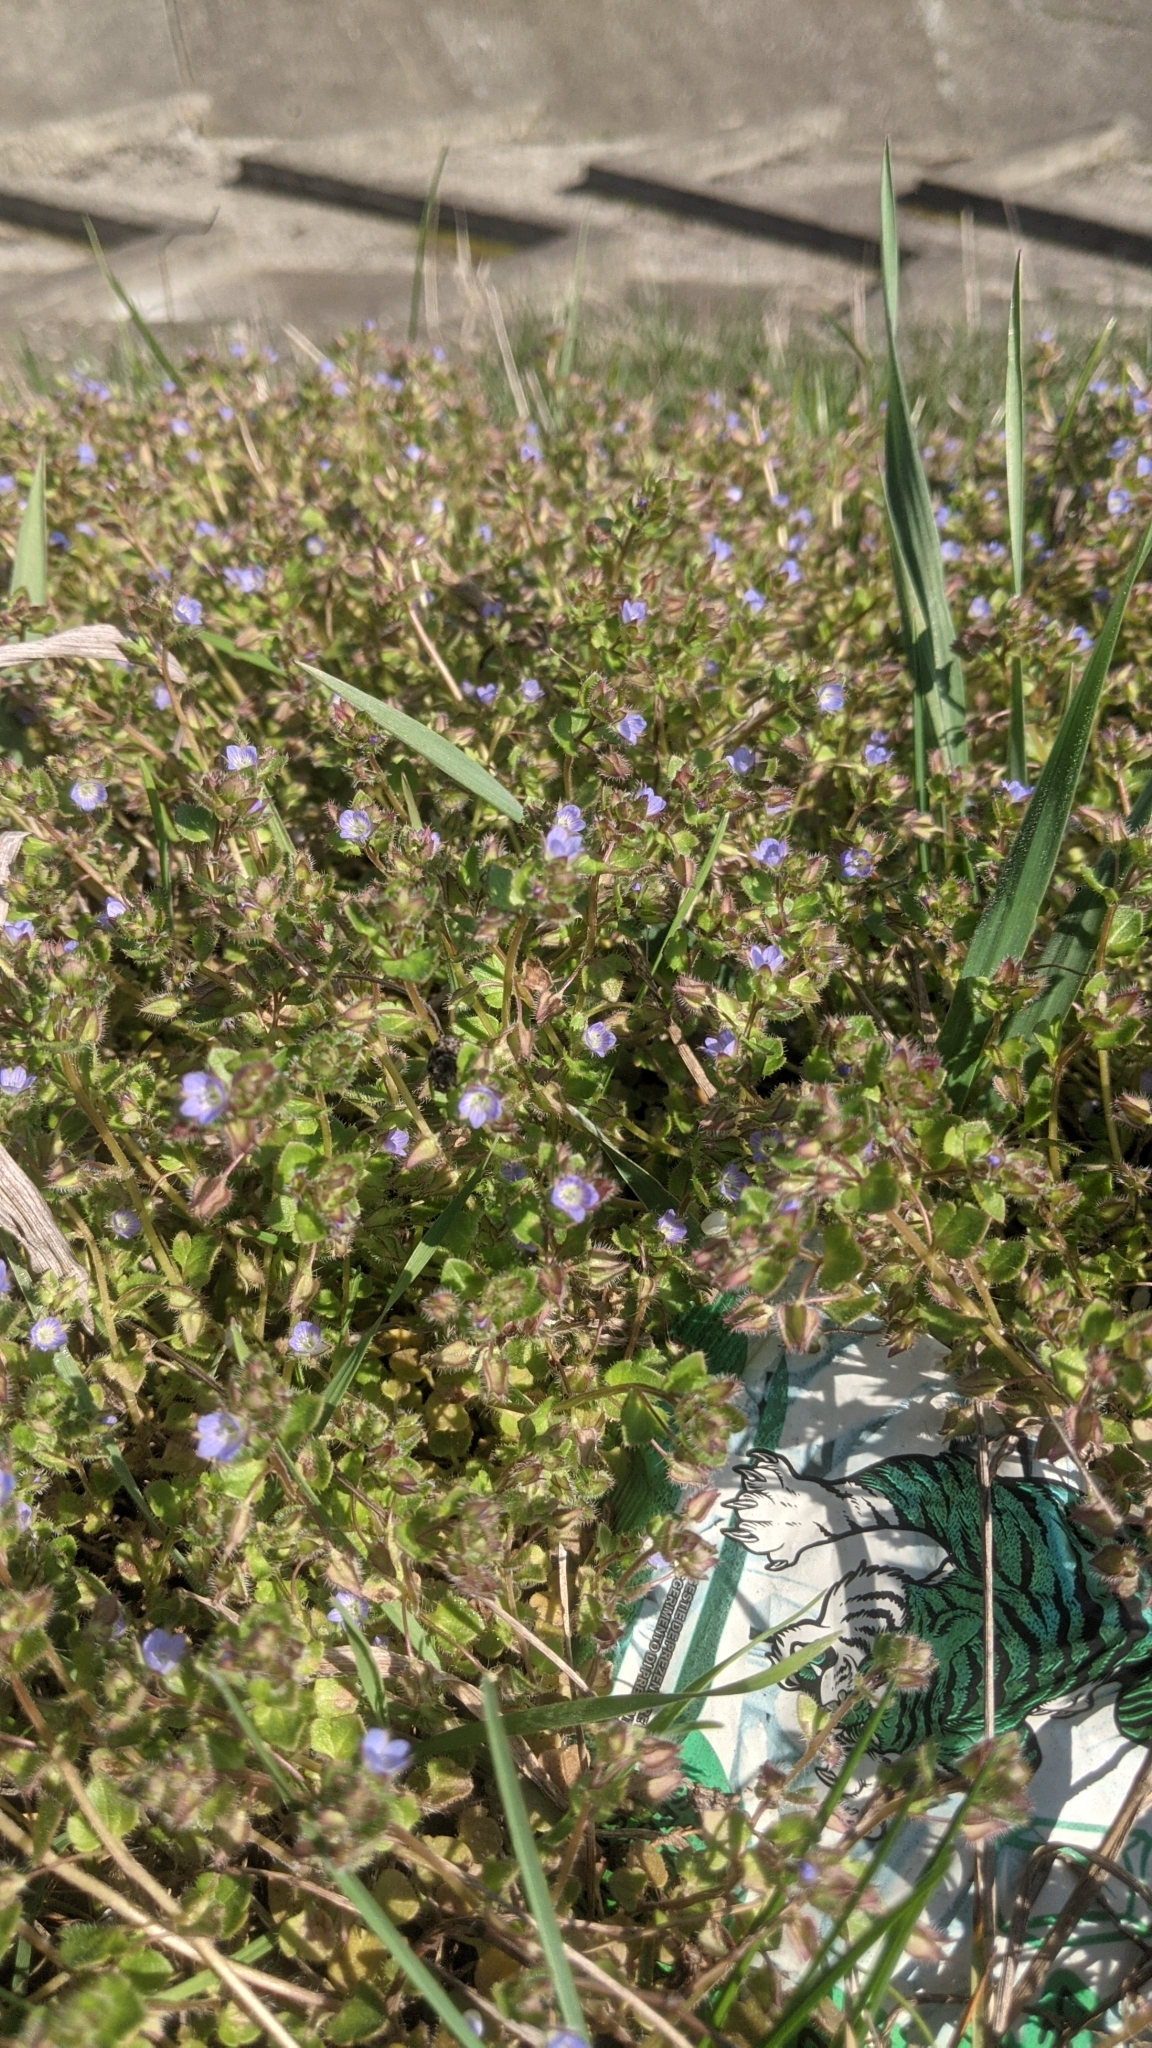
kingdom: Plantae
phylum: Tracheophyta
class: Magnoliopsida
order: Lamiales
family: Plantaginaceae
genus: Veronica
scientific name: Veronica hederifolia
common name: Ivy-leaved speedwell
